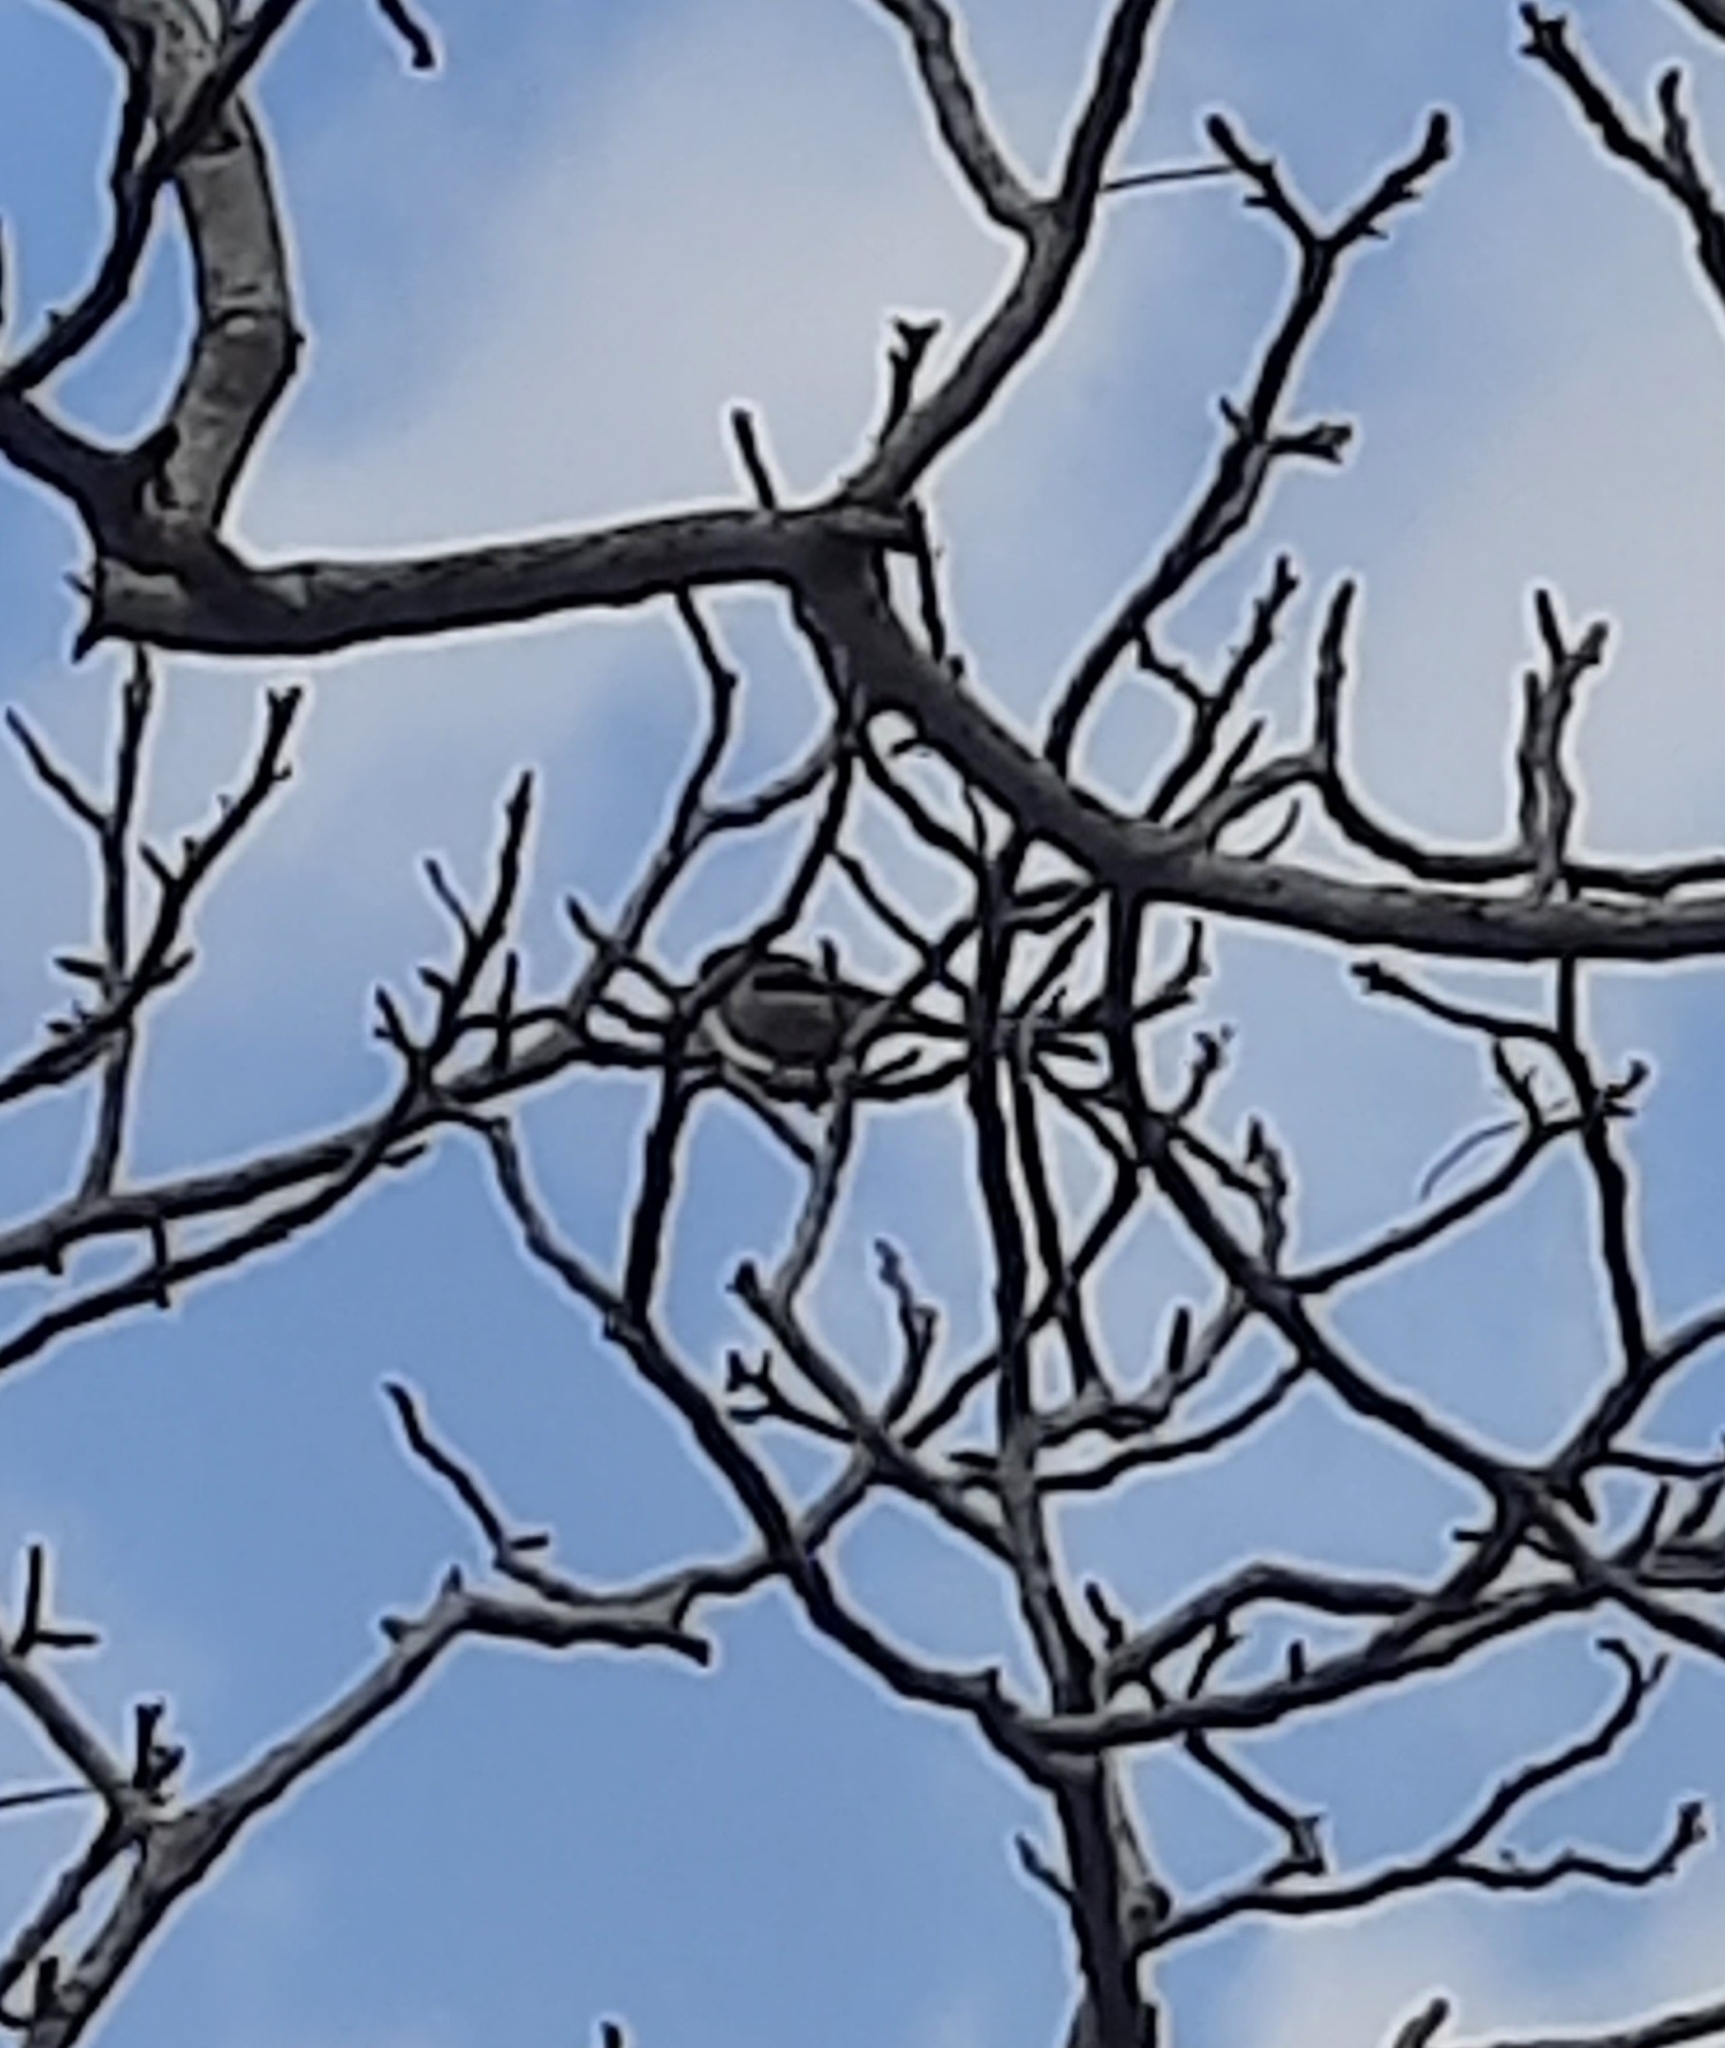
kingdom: Animalia
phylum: Chordata
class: Aves
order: Passeriformes
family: Aegithalidae
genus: Aegithalos
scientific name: Aegithalos caudatus
